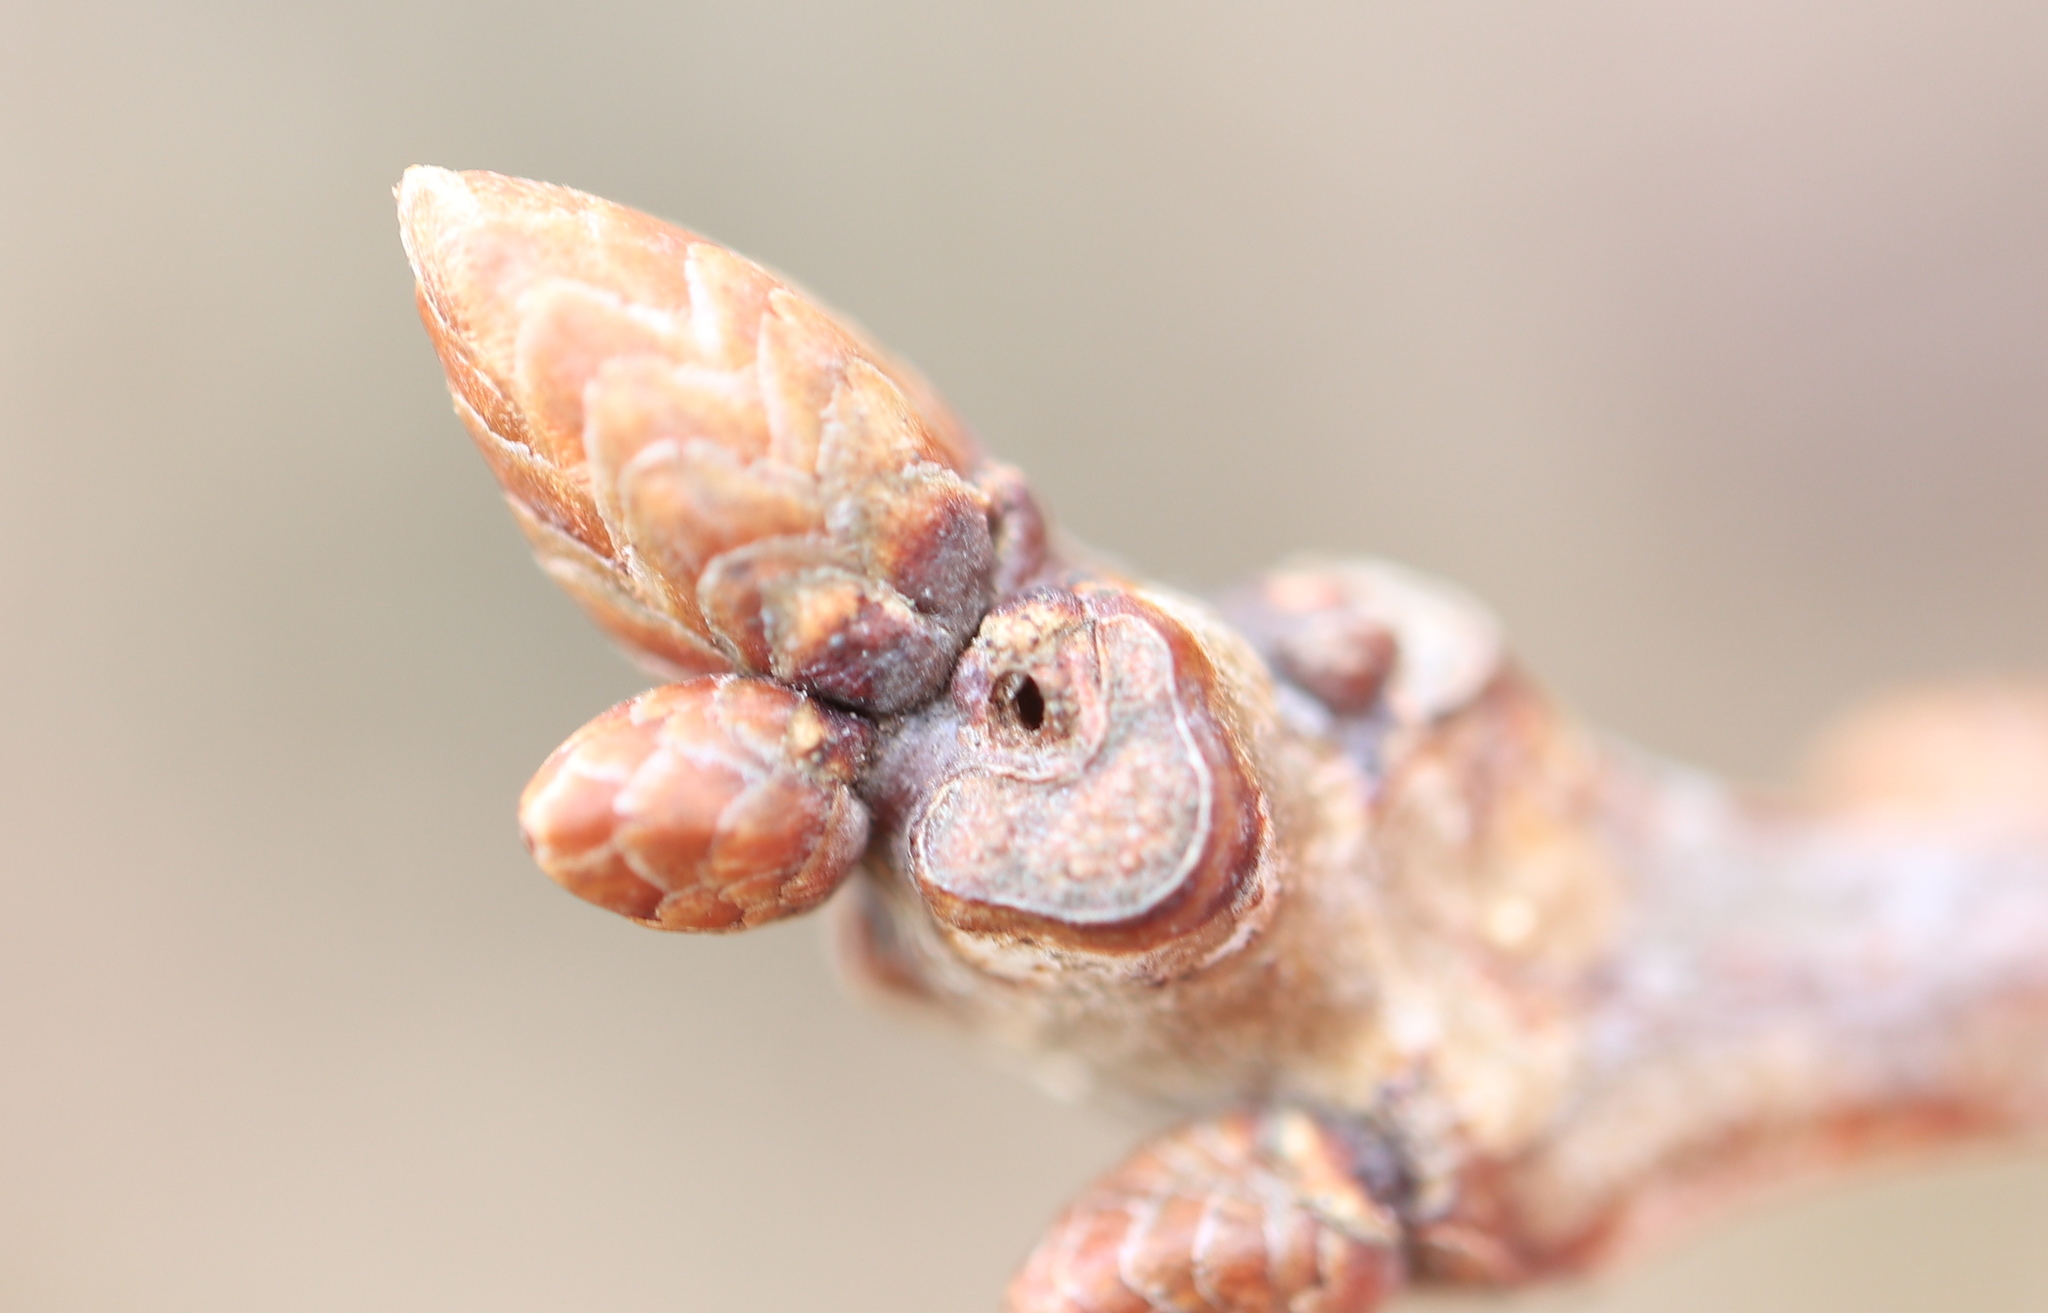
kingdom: Animalia
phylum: Arthropoda
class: Insecta
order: Hymenoptera
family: Cynipidae
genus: Neuroterus
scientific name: Neuroterus
